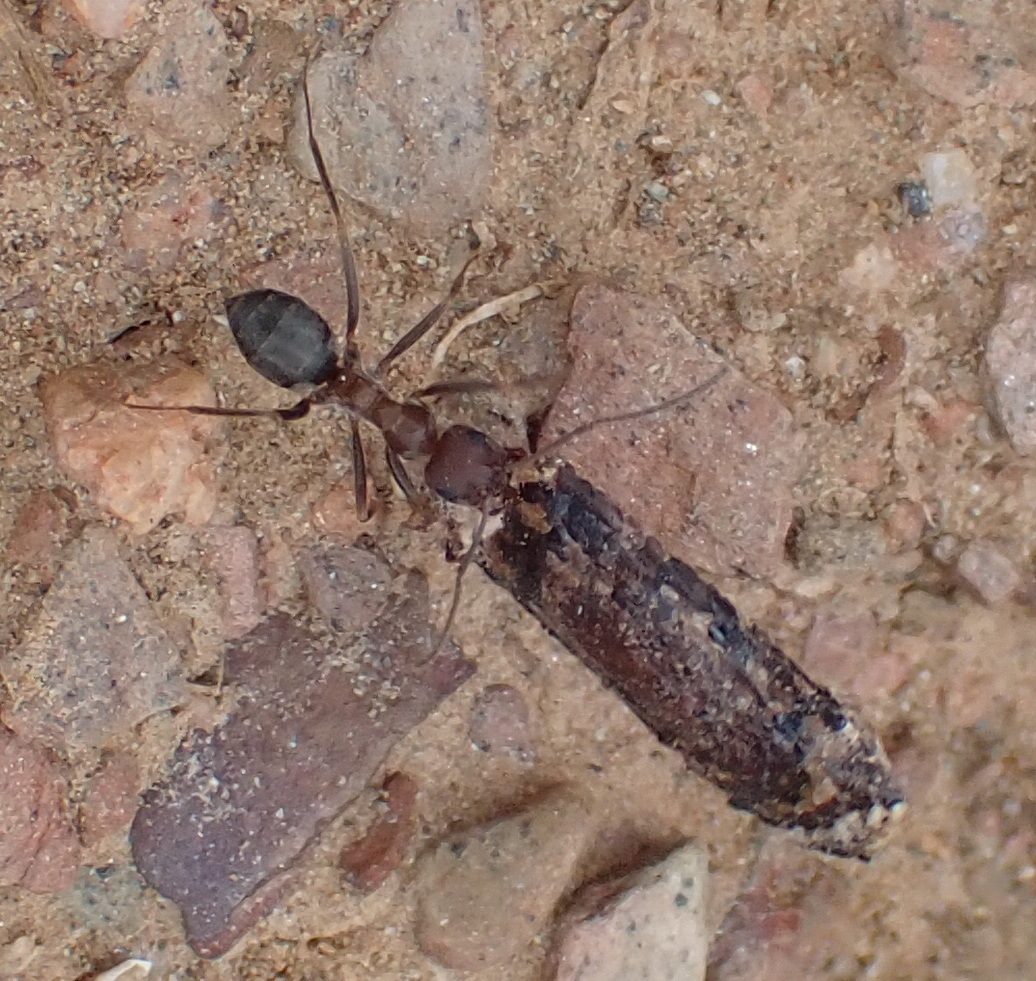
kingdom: Animalia
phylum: Arthropoda
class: Insecta
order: Hymenoptera
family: Formicidae
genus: Anoplolepis
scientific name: Anoplolepis steingroeveri
